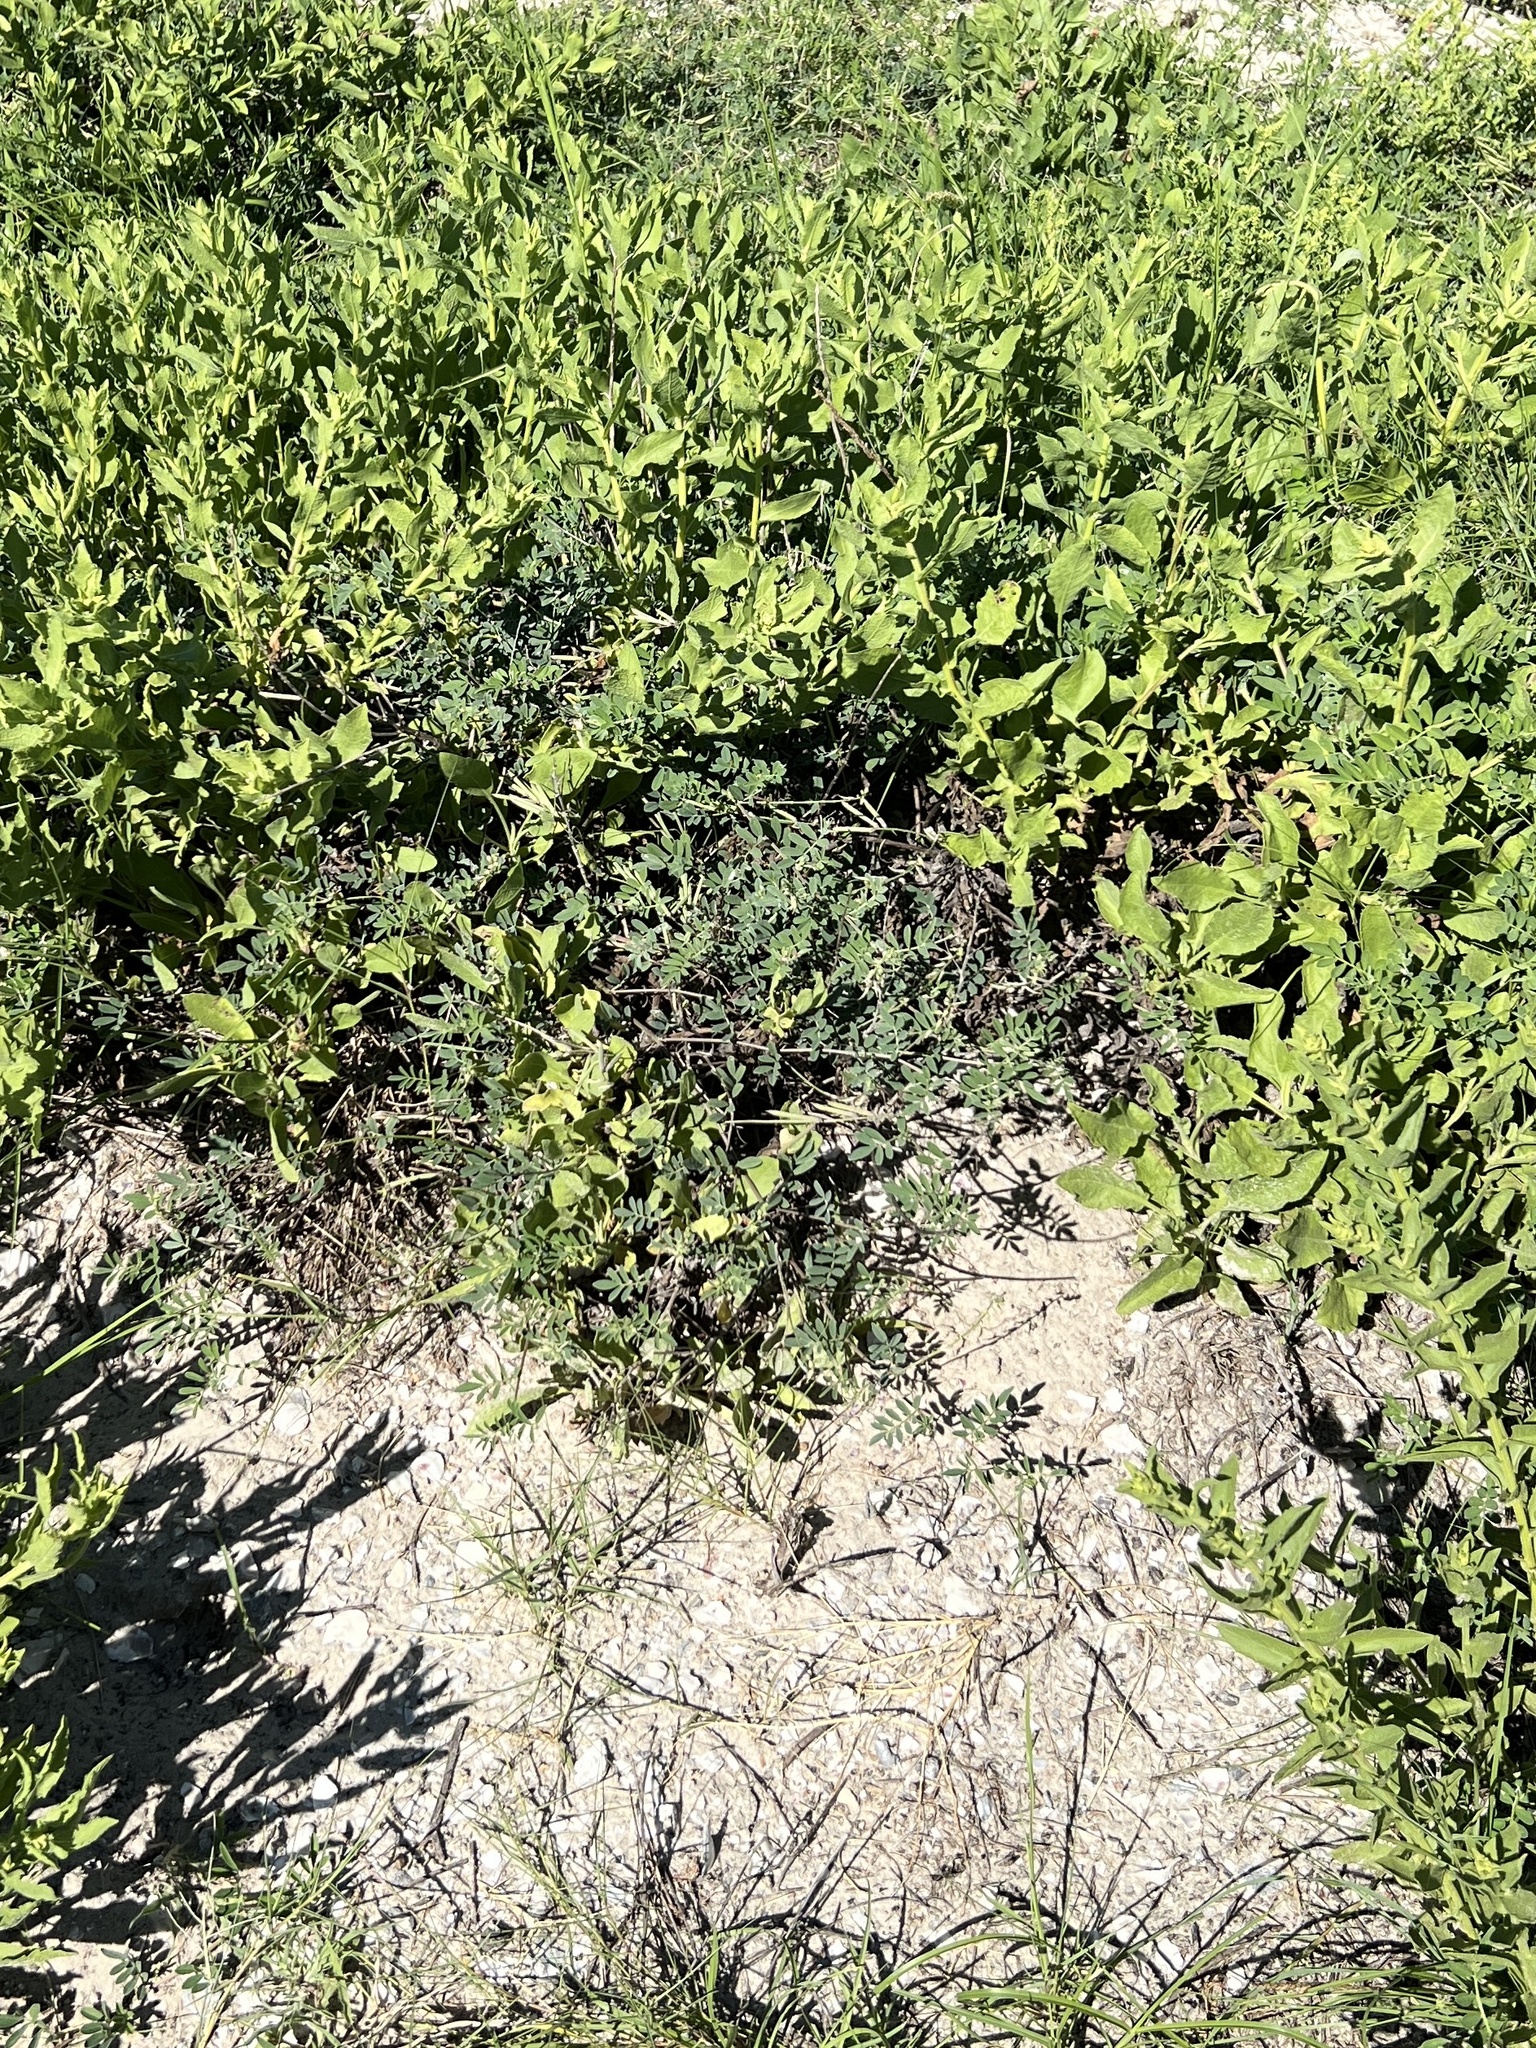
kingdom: Plantae
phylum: Tracheophyta
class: Magnoliopsida
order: Fabales
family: Fabaceae
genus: Indigofera
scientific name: Indigofera miniata
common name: Coast indigo
